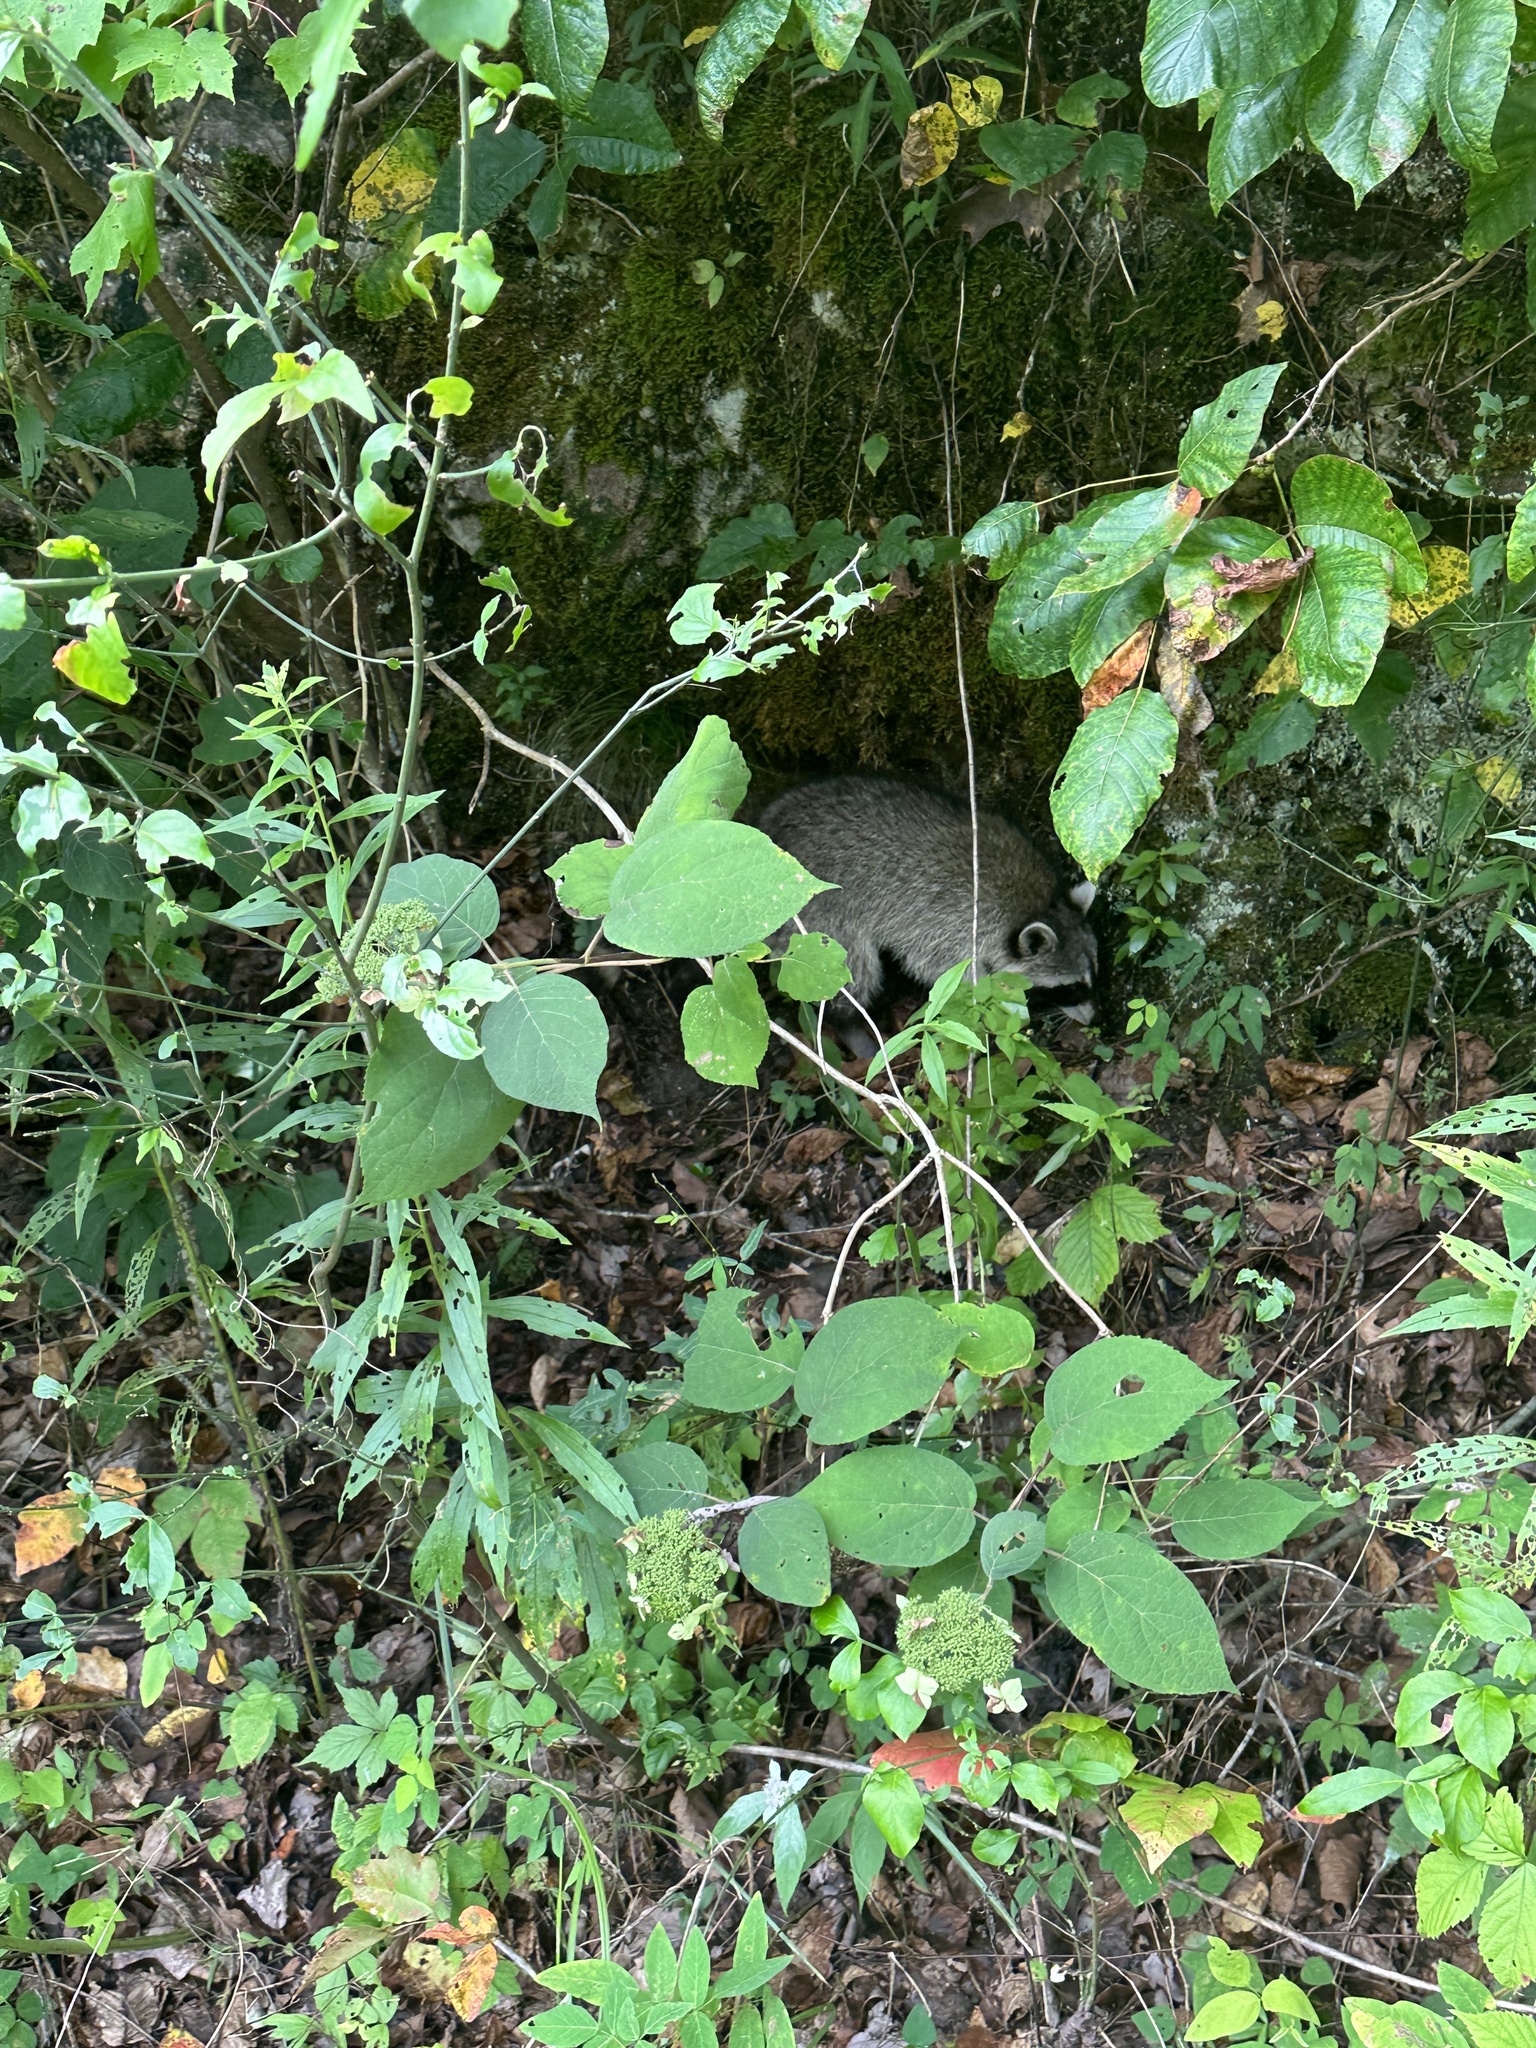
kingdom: Animalia
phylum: Chordata
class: Mammalia
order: Carnivora
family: Procyonidae
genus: Procyon
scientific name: Procyon lotor
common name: Raccoon
